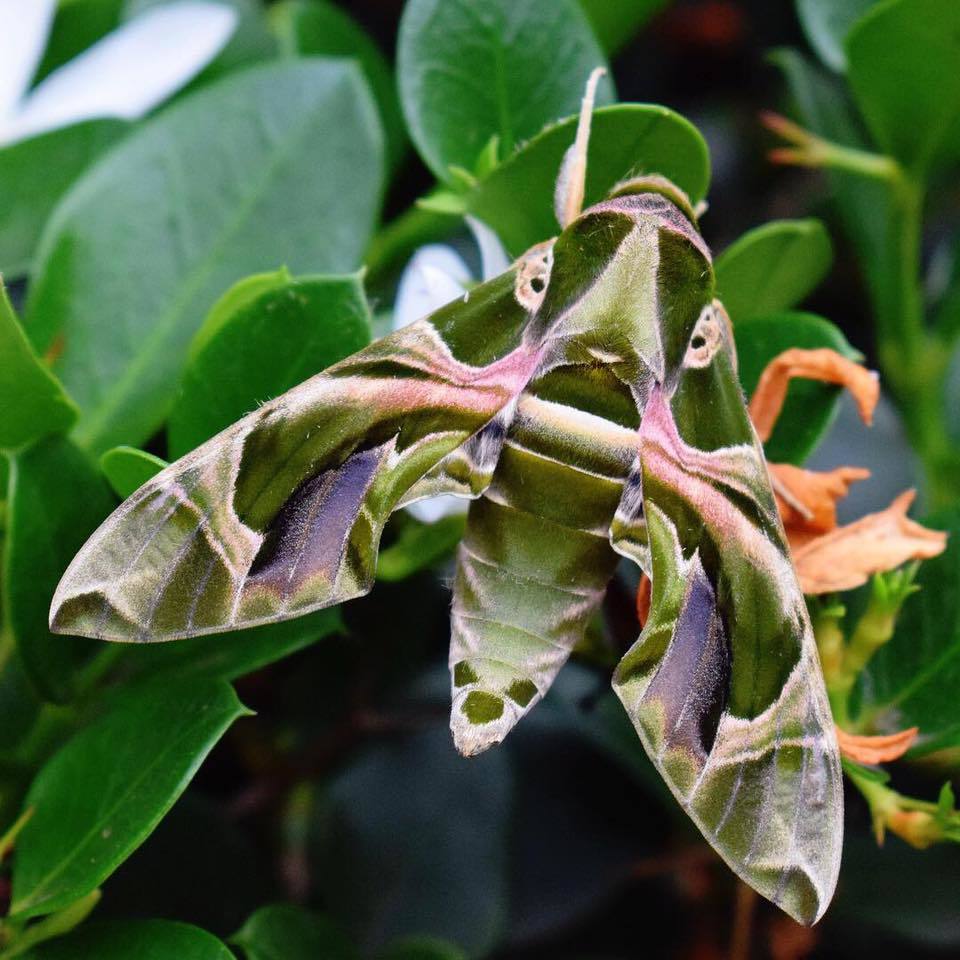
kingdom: Animalia
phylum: Arthropoda
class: Insecta
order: Lepidoptera
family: Sphingidae
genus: Daphnis
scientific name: Daphnis nerii
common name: Oleander hawk-moth
